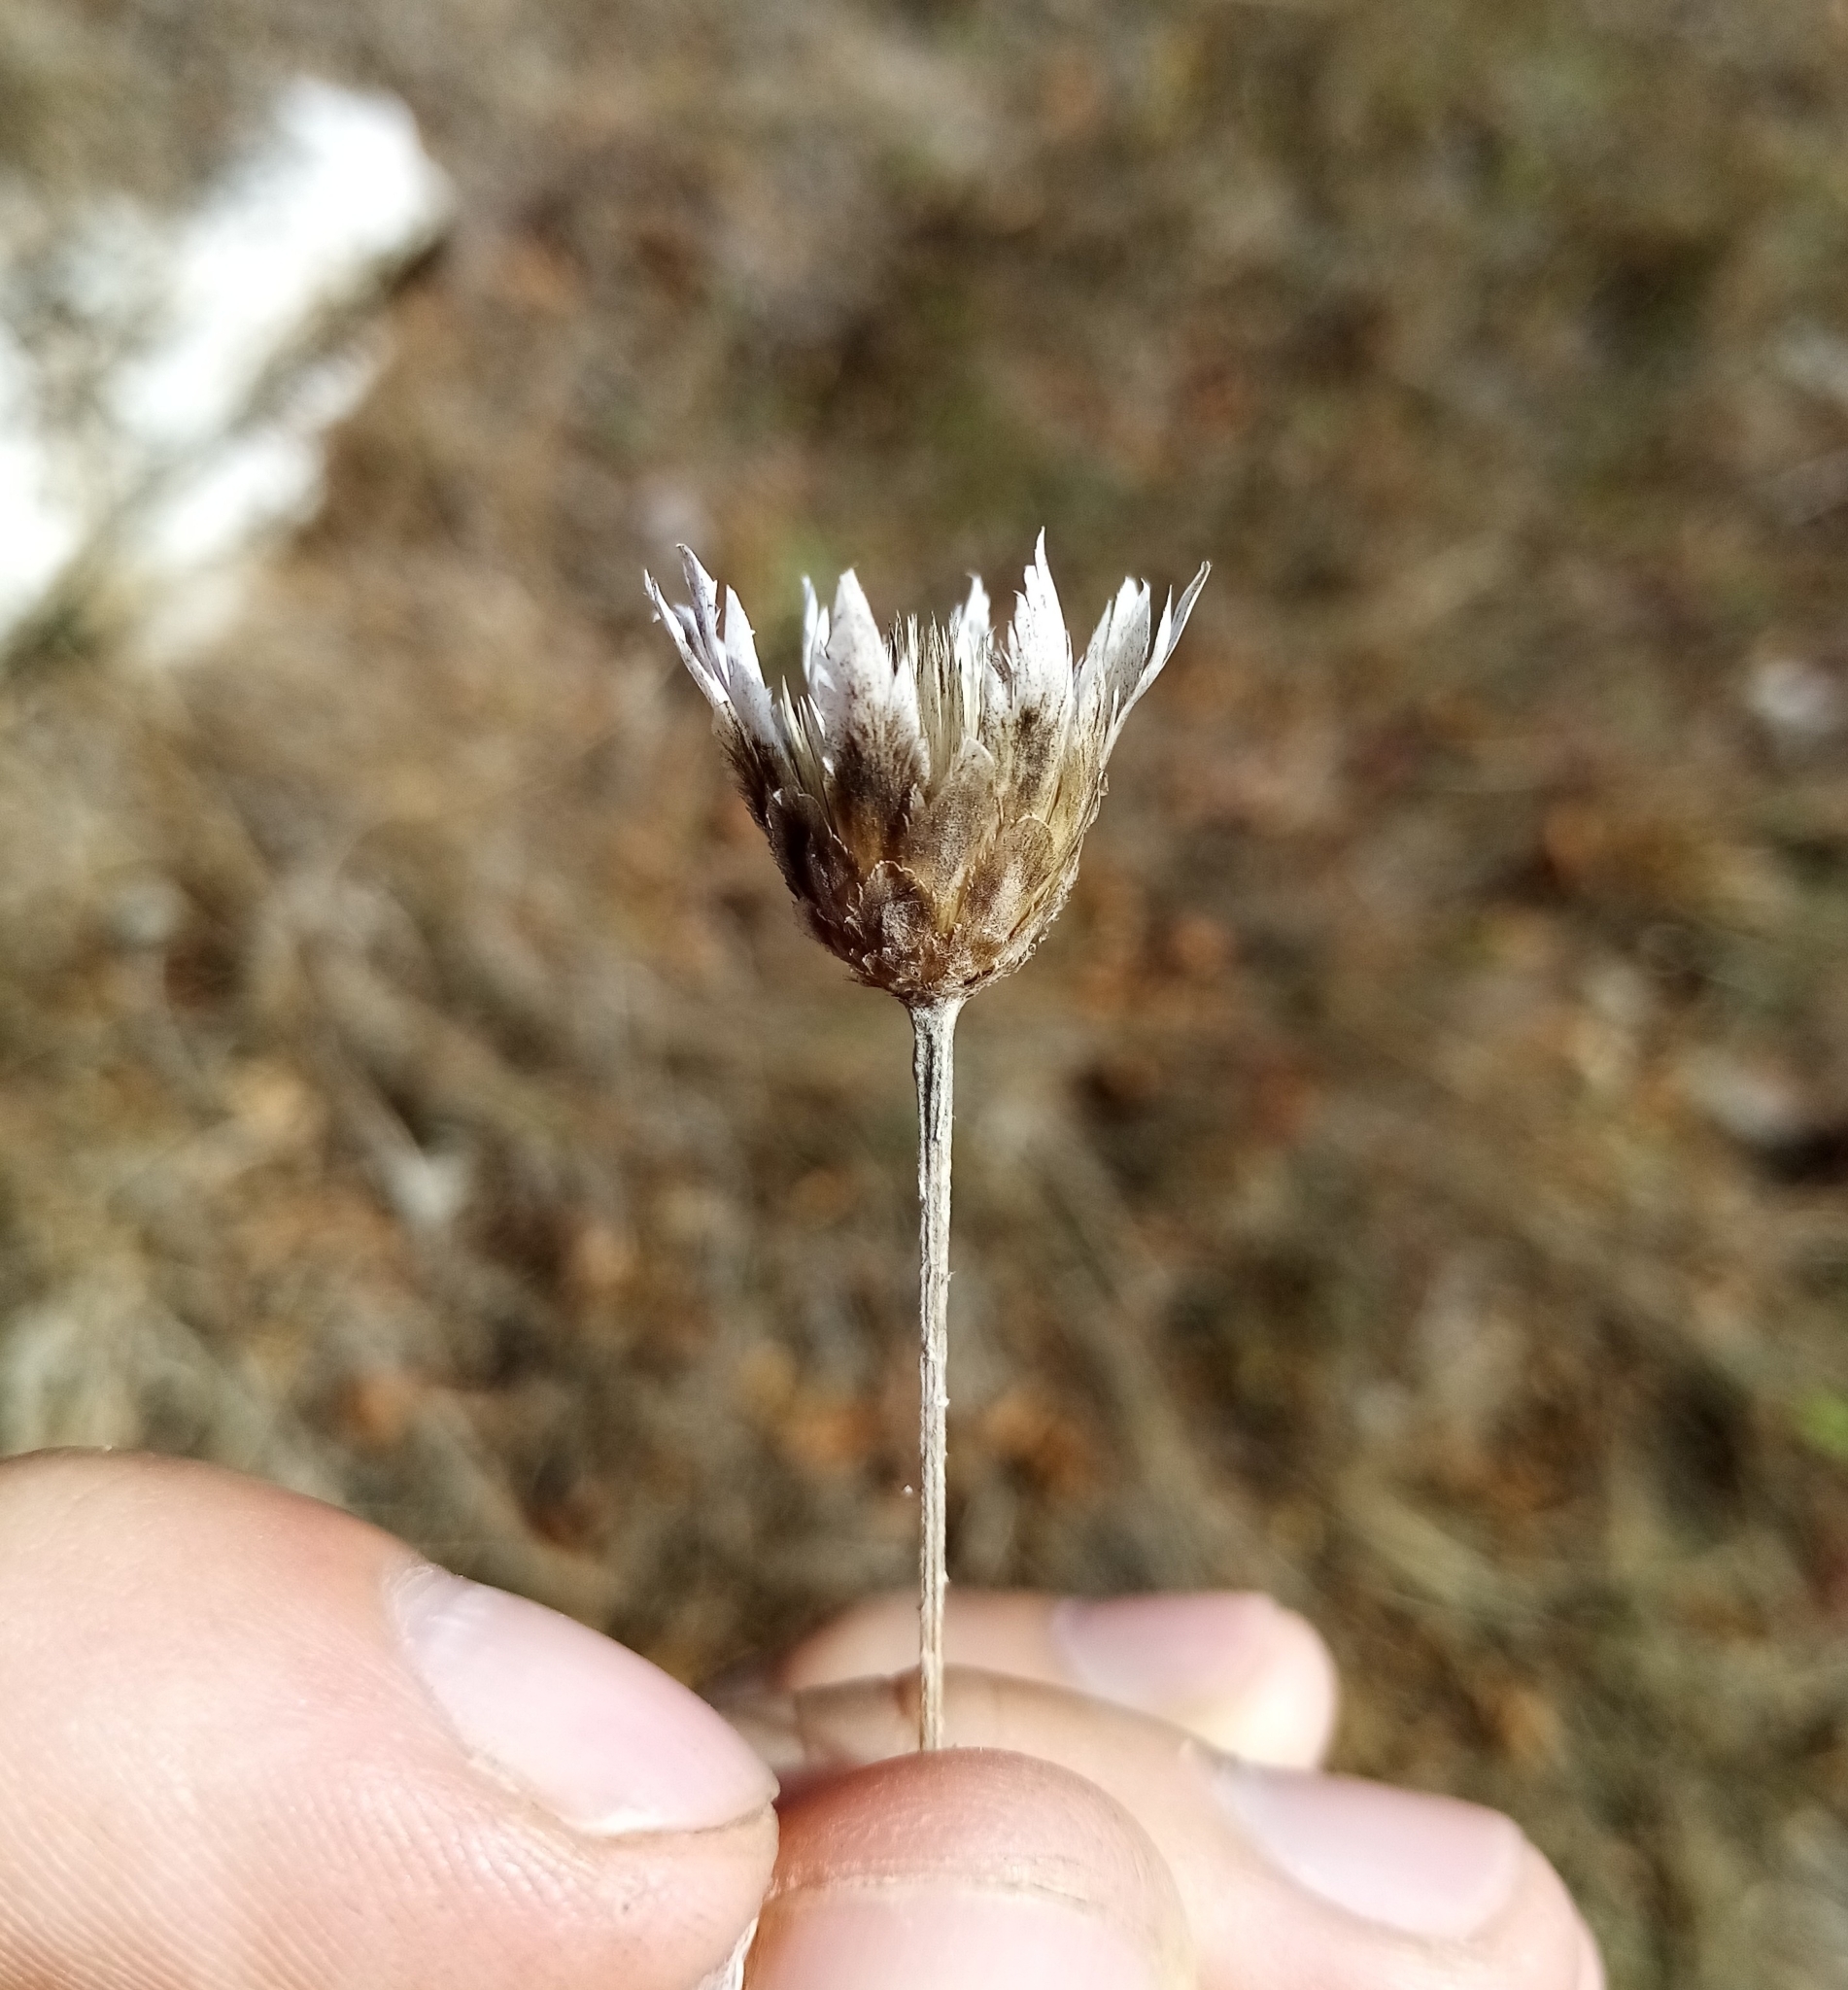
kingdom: Plantae
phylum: Tracheophyta
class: Magnoliopsida
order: Asterales
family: Asteraceae
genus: Xeranthemum
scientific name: Xeranthemum annuum
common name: Immortelle
